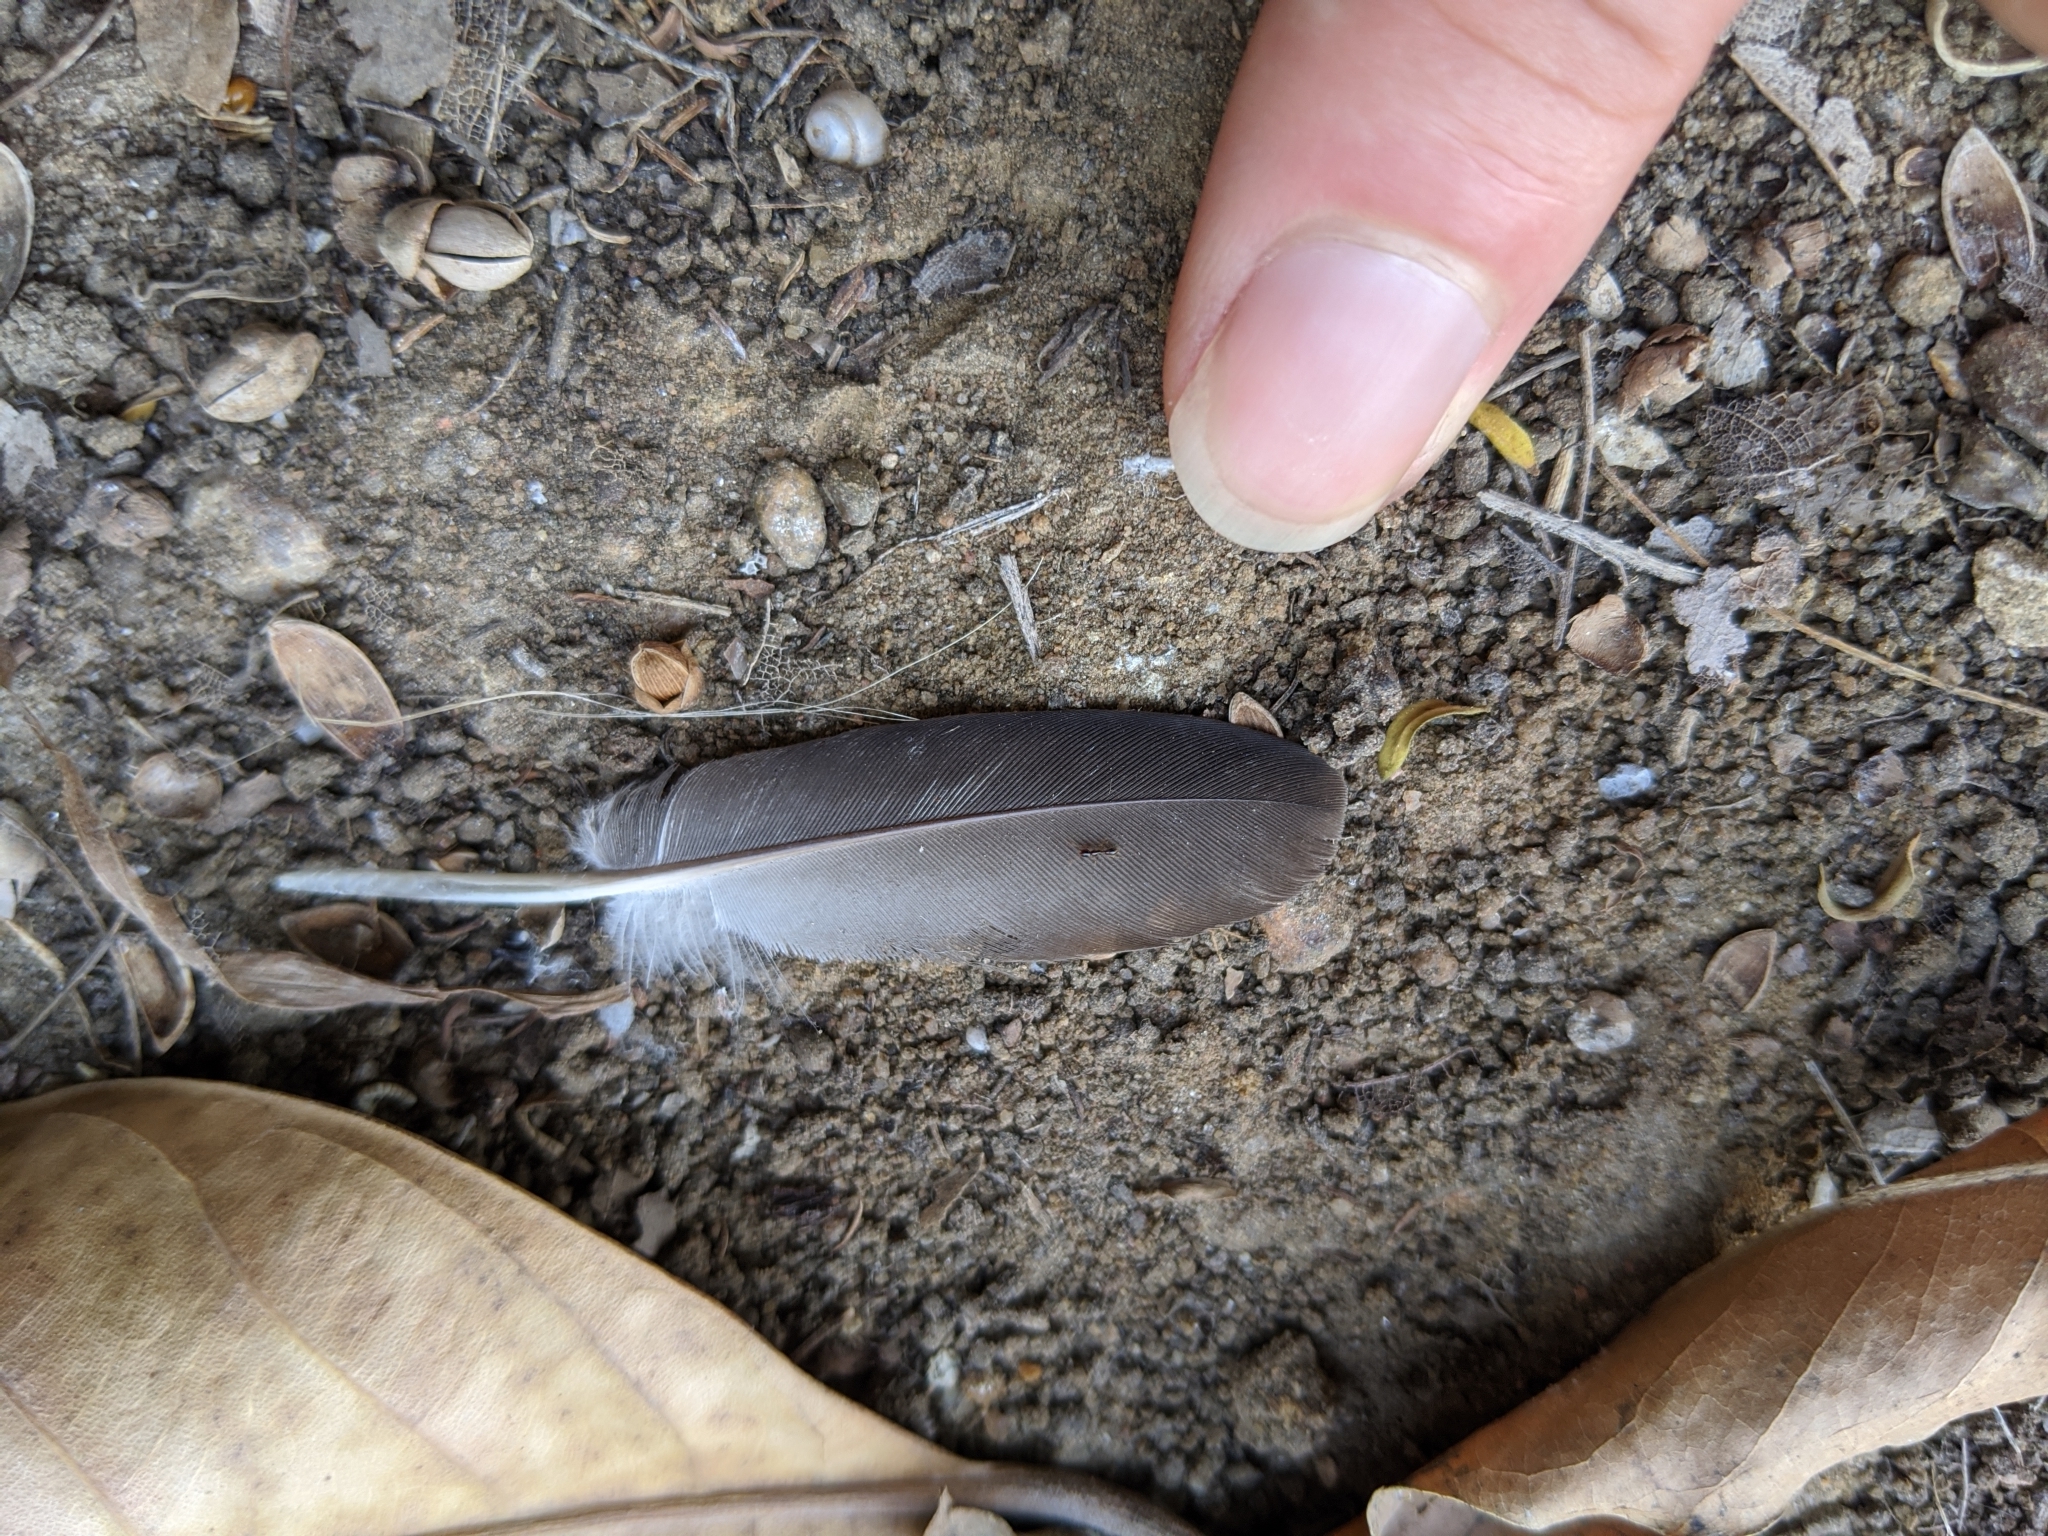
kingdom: Animalia
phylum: Chordata
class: Aves
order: Columbiformes
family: Columbidae
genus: Columba
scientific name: Columba livia
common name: Rock pigeon
